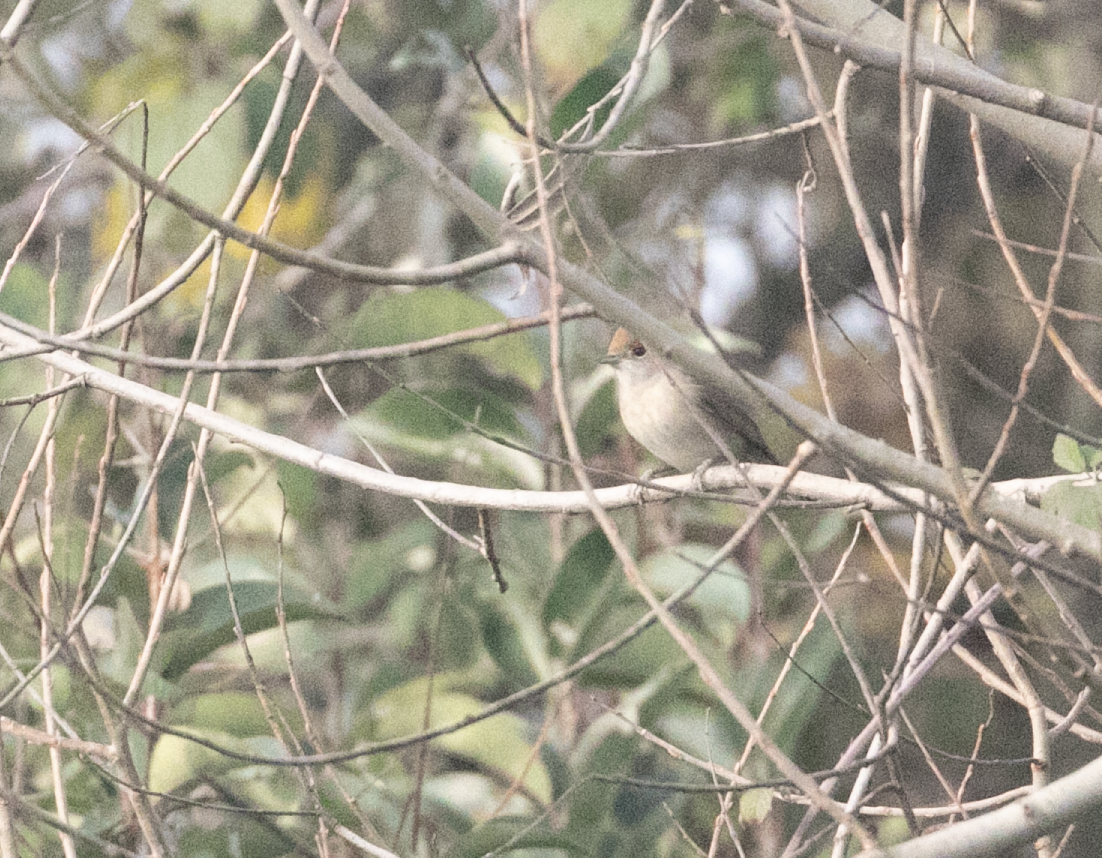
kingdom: Animalia
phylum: Chordata
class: Aves
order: Passeriformes
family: Sylviidae
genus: Sylvia
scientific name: Sylvia atricapilla
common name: Eurasian blackcap
